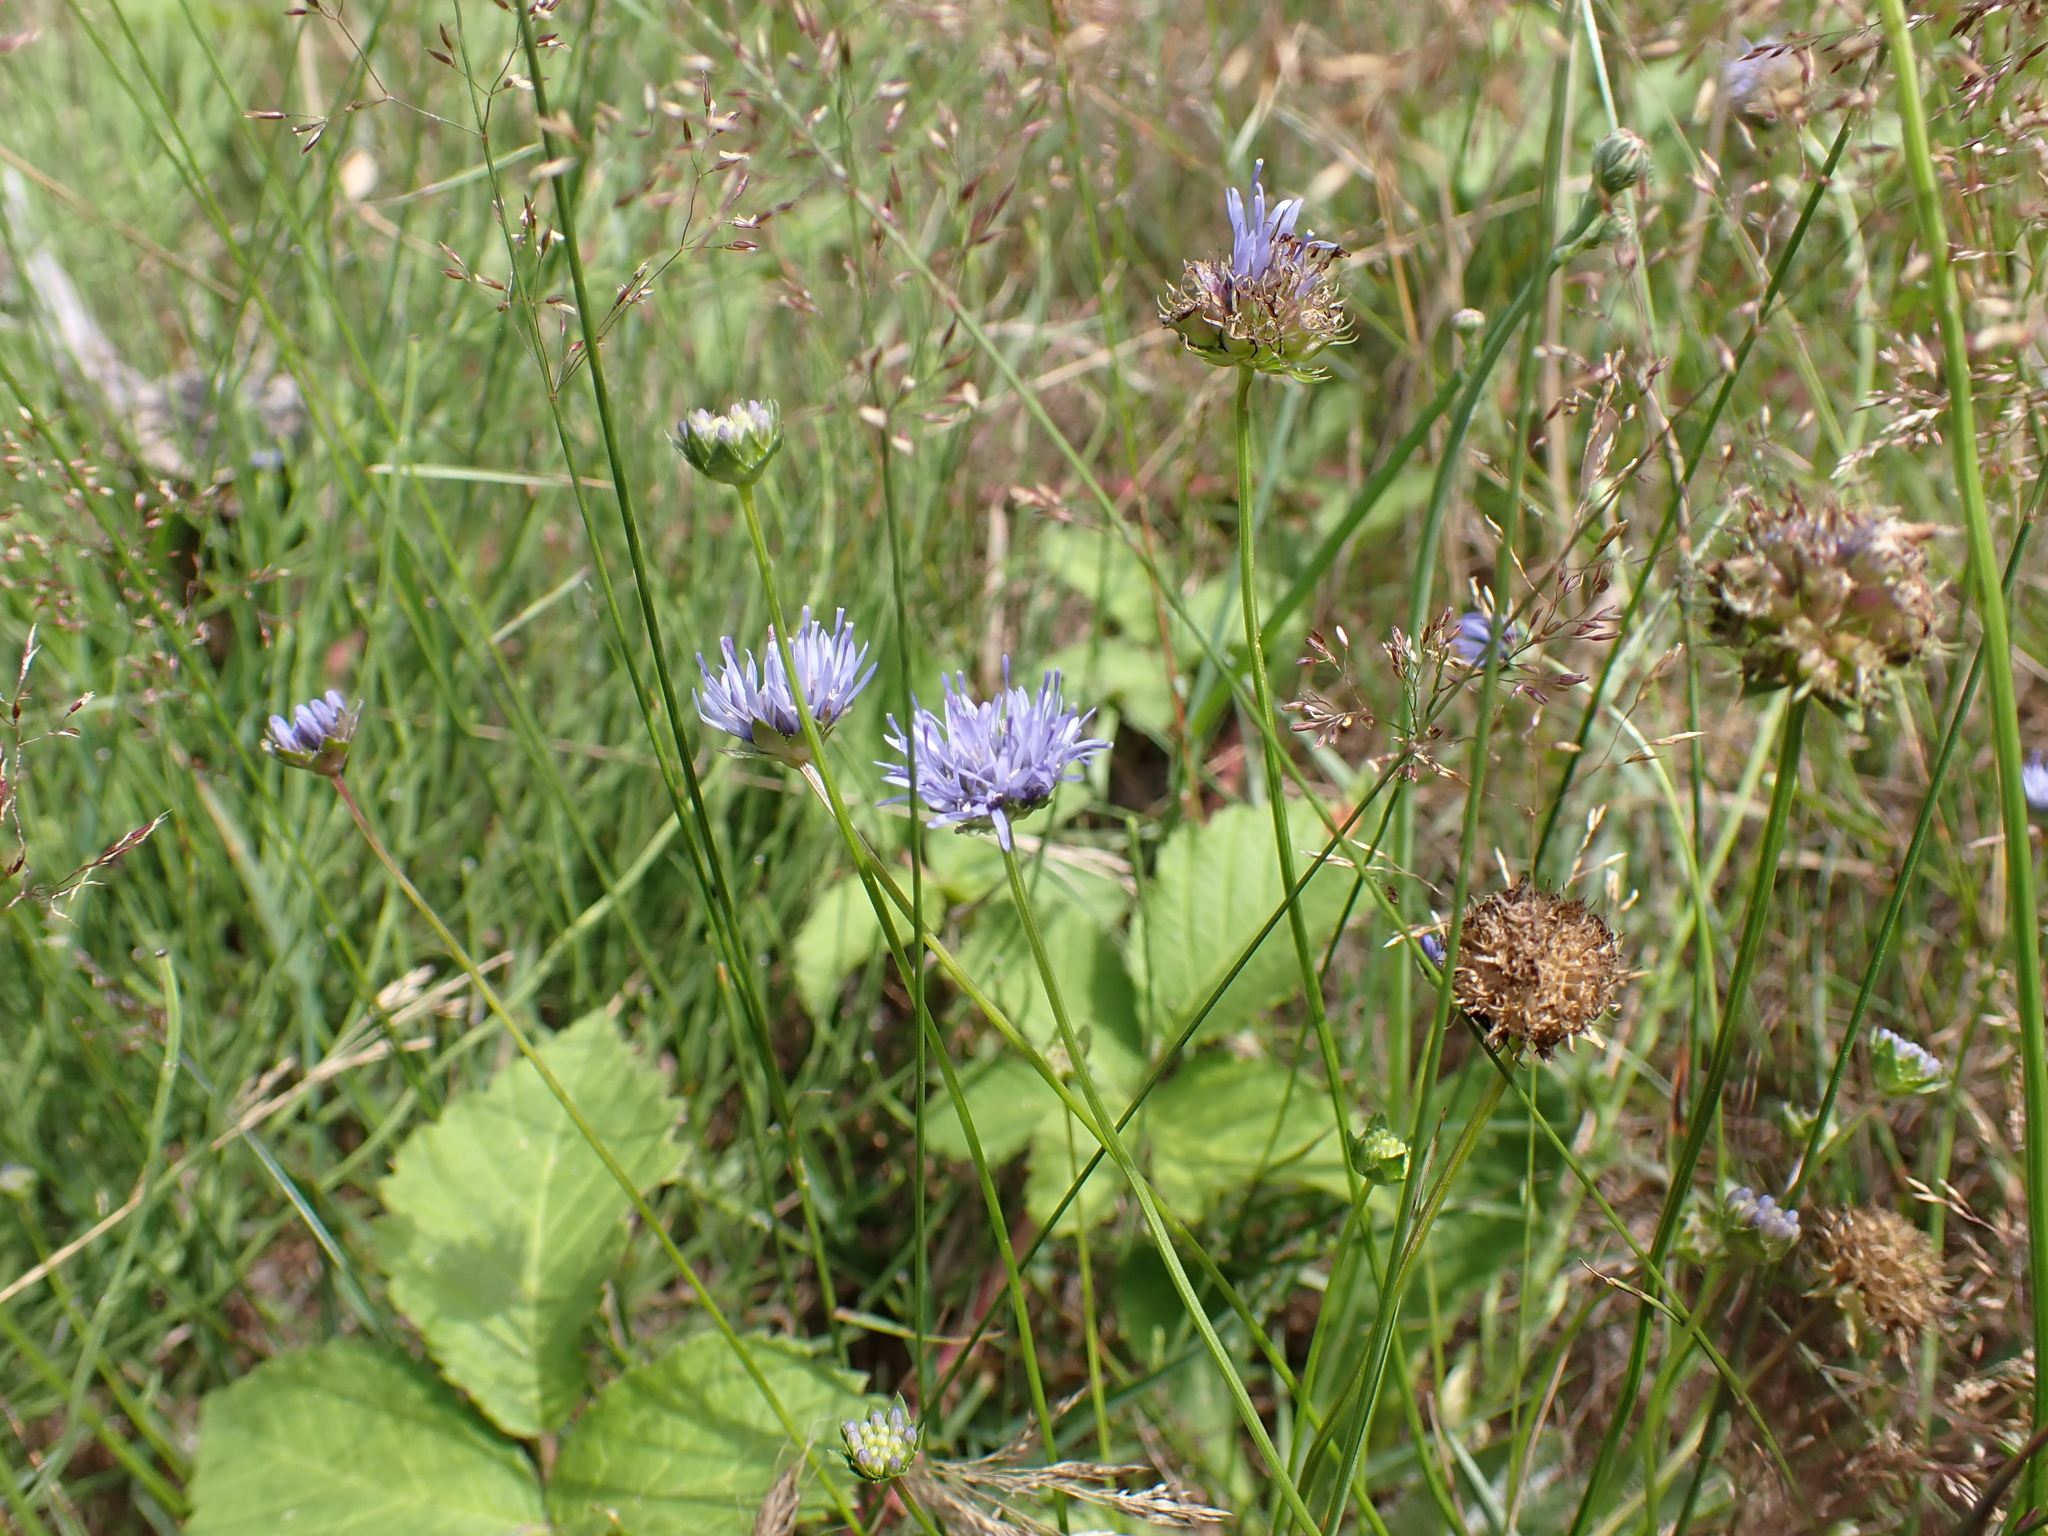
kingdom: Plantae
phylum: Tracheophyta
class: Magnoliopsida
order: Asterales
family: Campanulaceae
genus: Jasione
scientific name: Jasione montana
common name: Sheep's-bit
